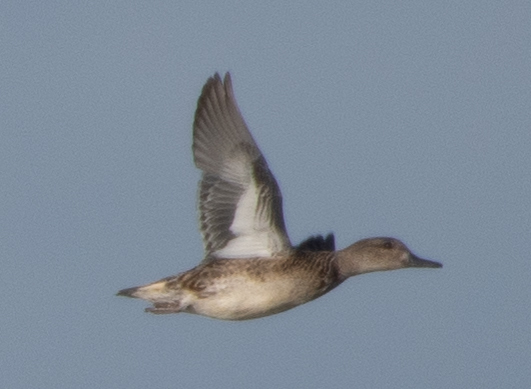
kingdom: Animalia
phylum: Chordata
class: Aves
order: Anseriformes
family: Anatidae
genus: Anas
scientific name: Anas crecca
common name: Eurasian teal
